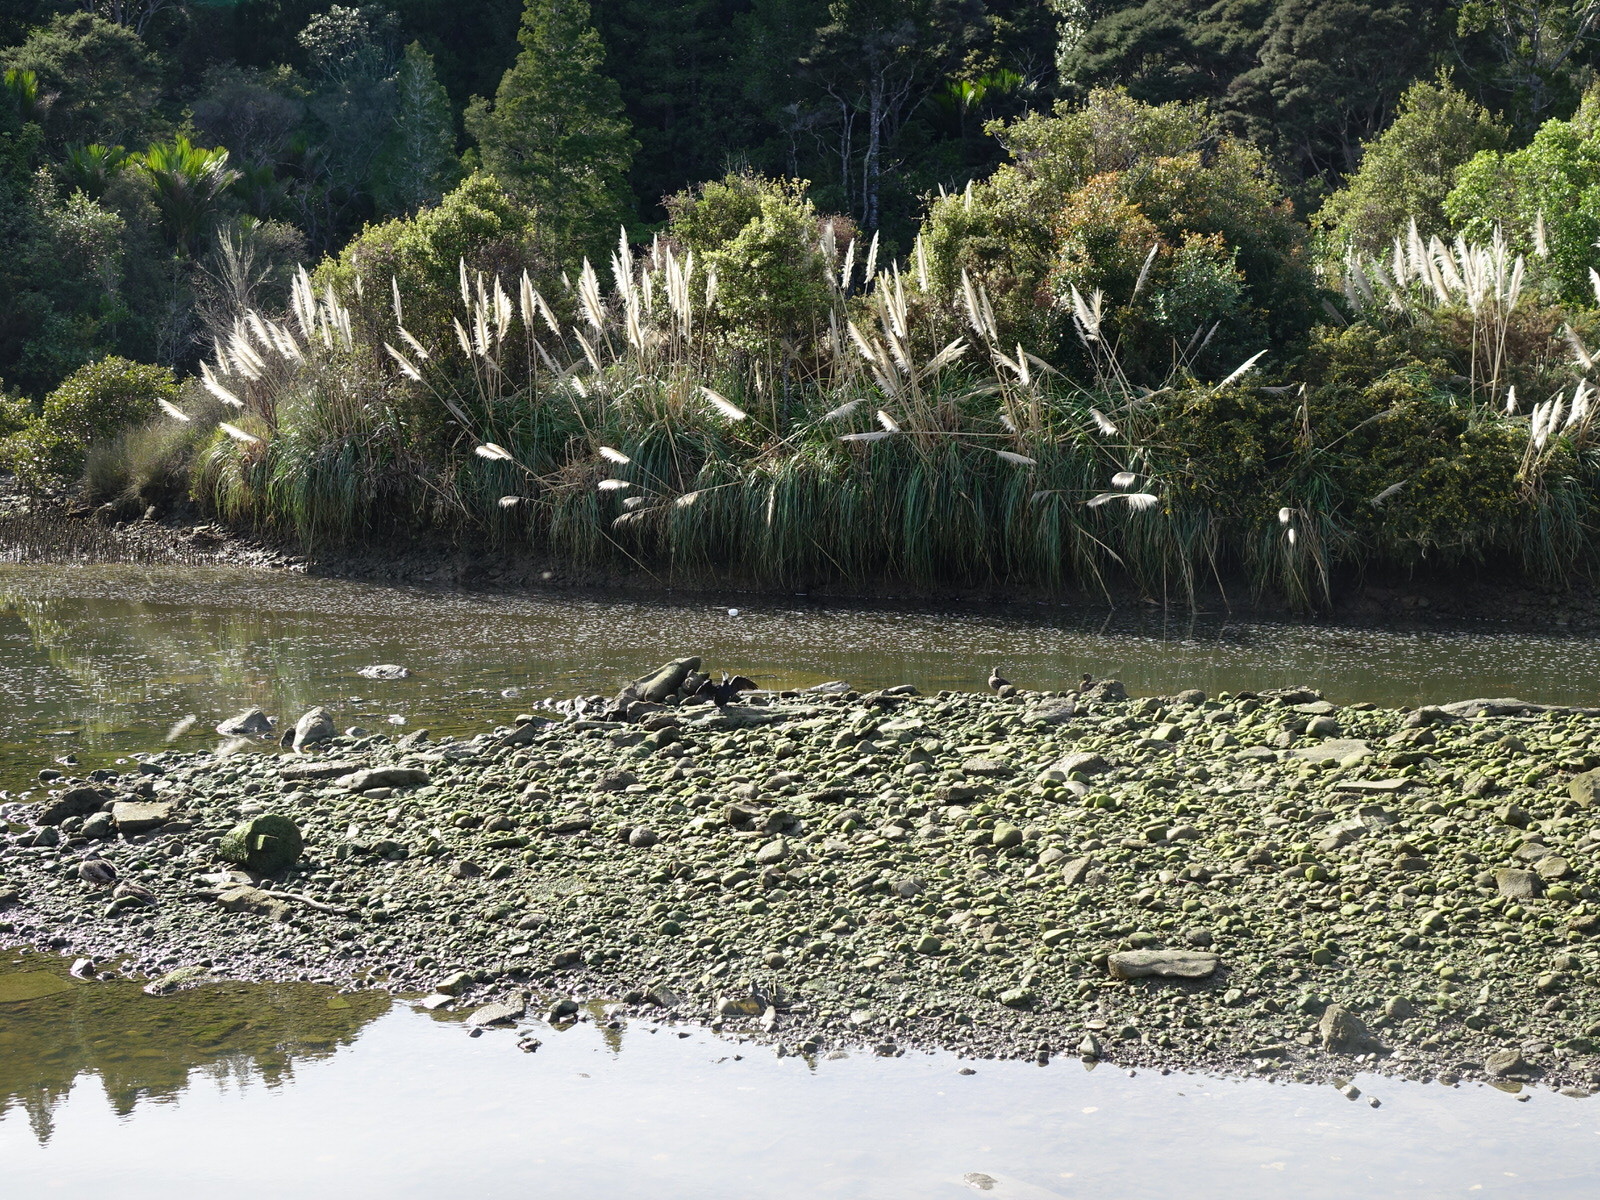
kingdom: Animalia
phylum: Chordata
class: Aves
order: Suliformes
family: Phalacrocoracidae
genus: Microcarbo
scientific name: Microcarbo melanoleucos
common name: Little pied cormorant
